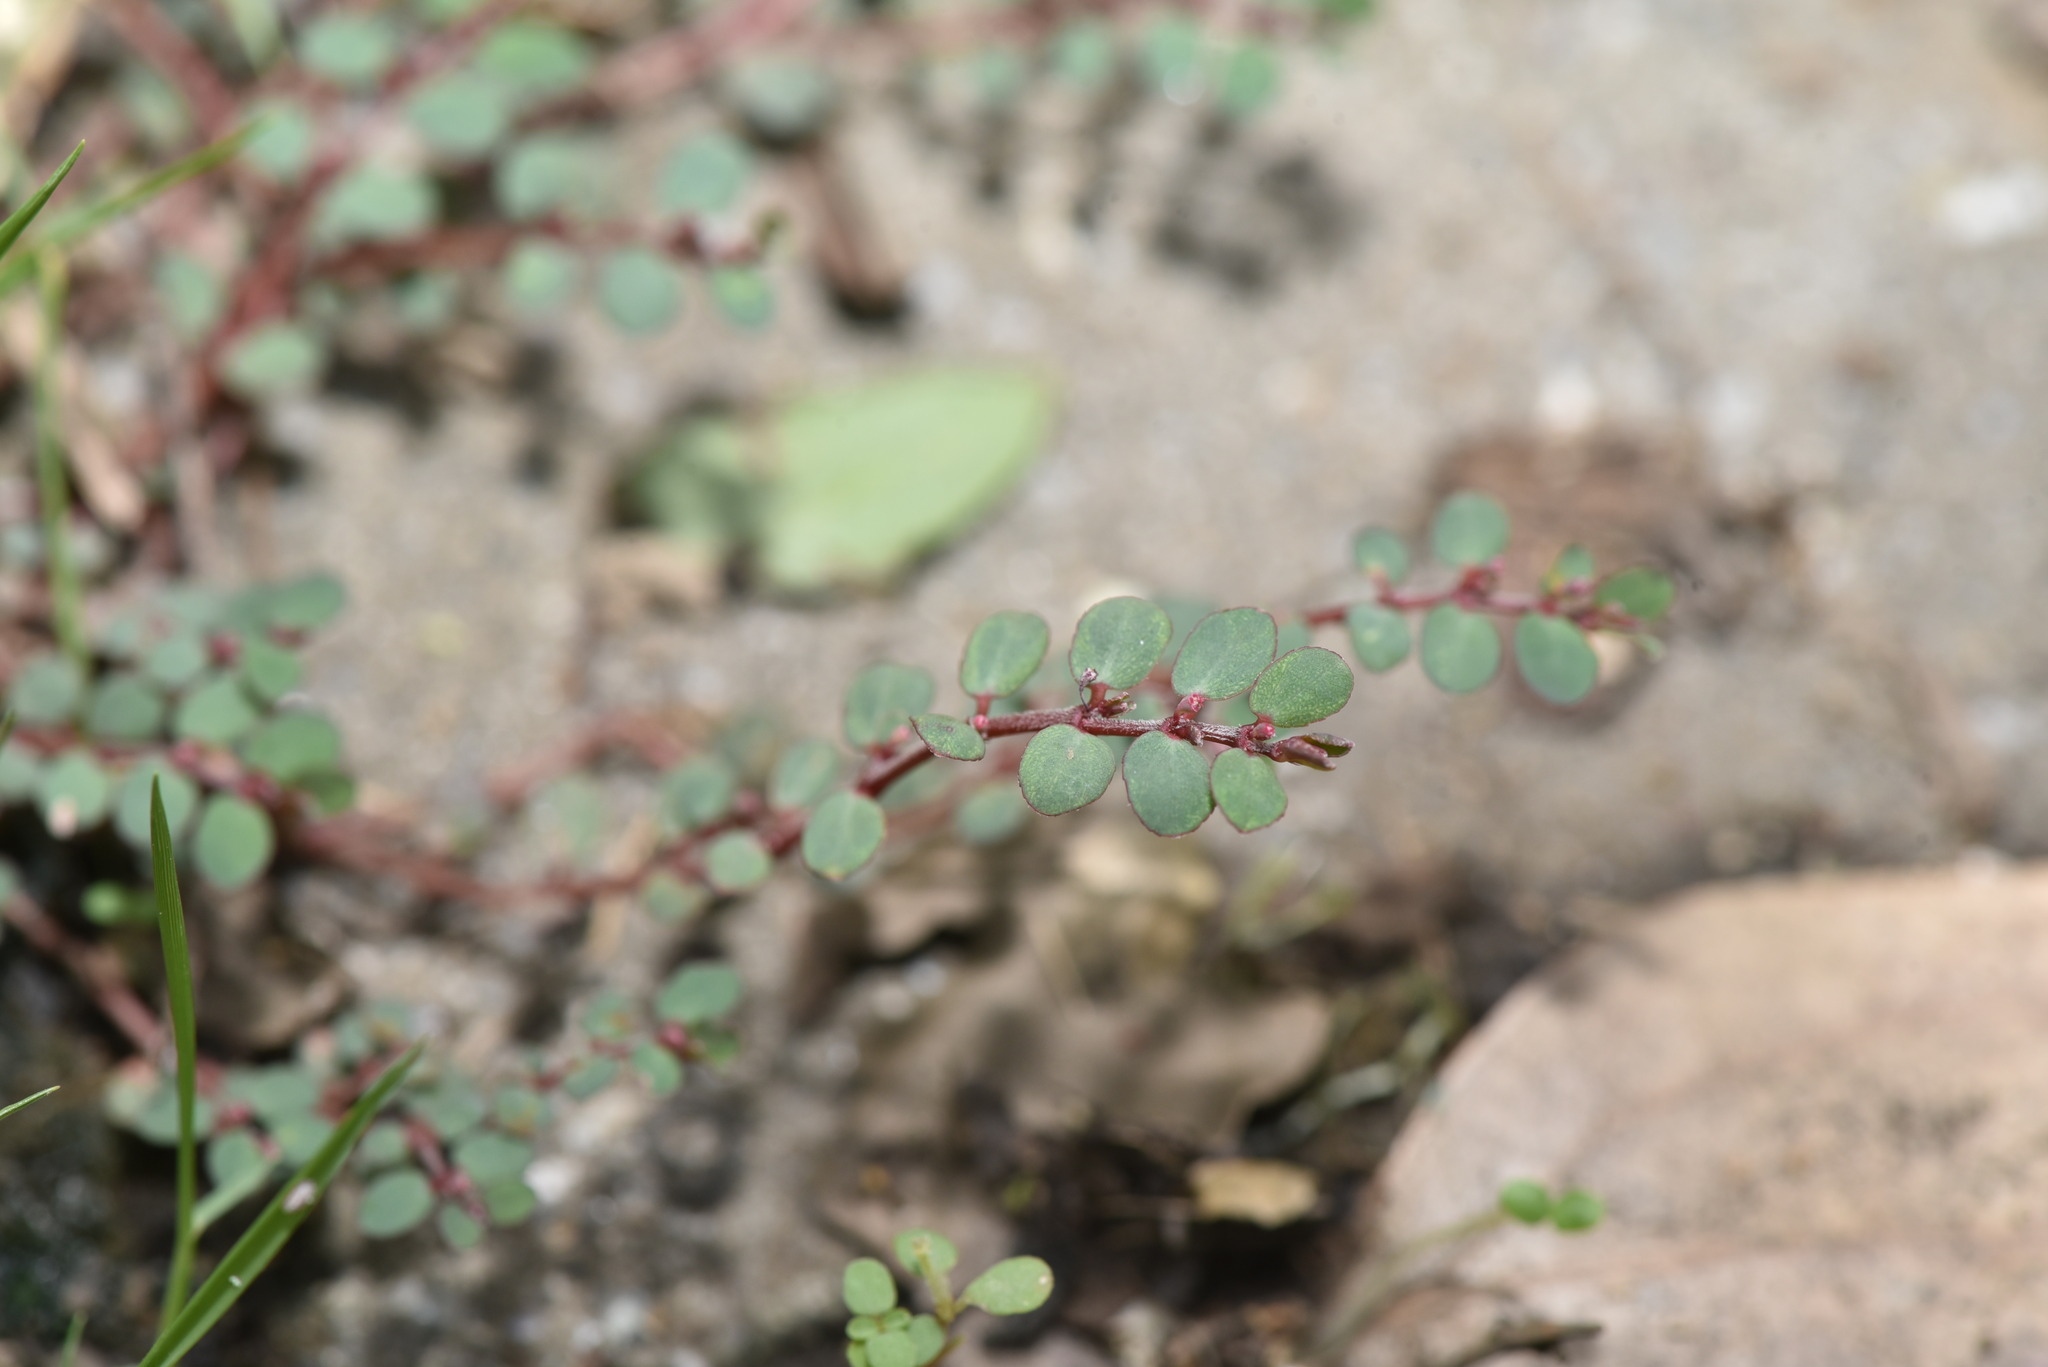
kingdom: Plantae
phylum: Tracheophyta
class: Magnoliopsida
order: Malpighiales
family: Euphorbiaceae
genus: Euphorbia
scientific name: Euphorbia thymifolia
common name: Gulf sandmat
